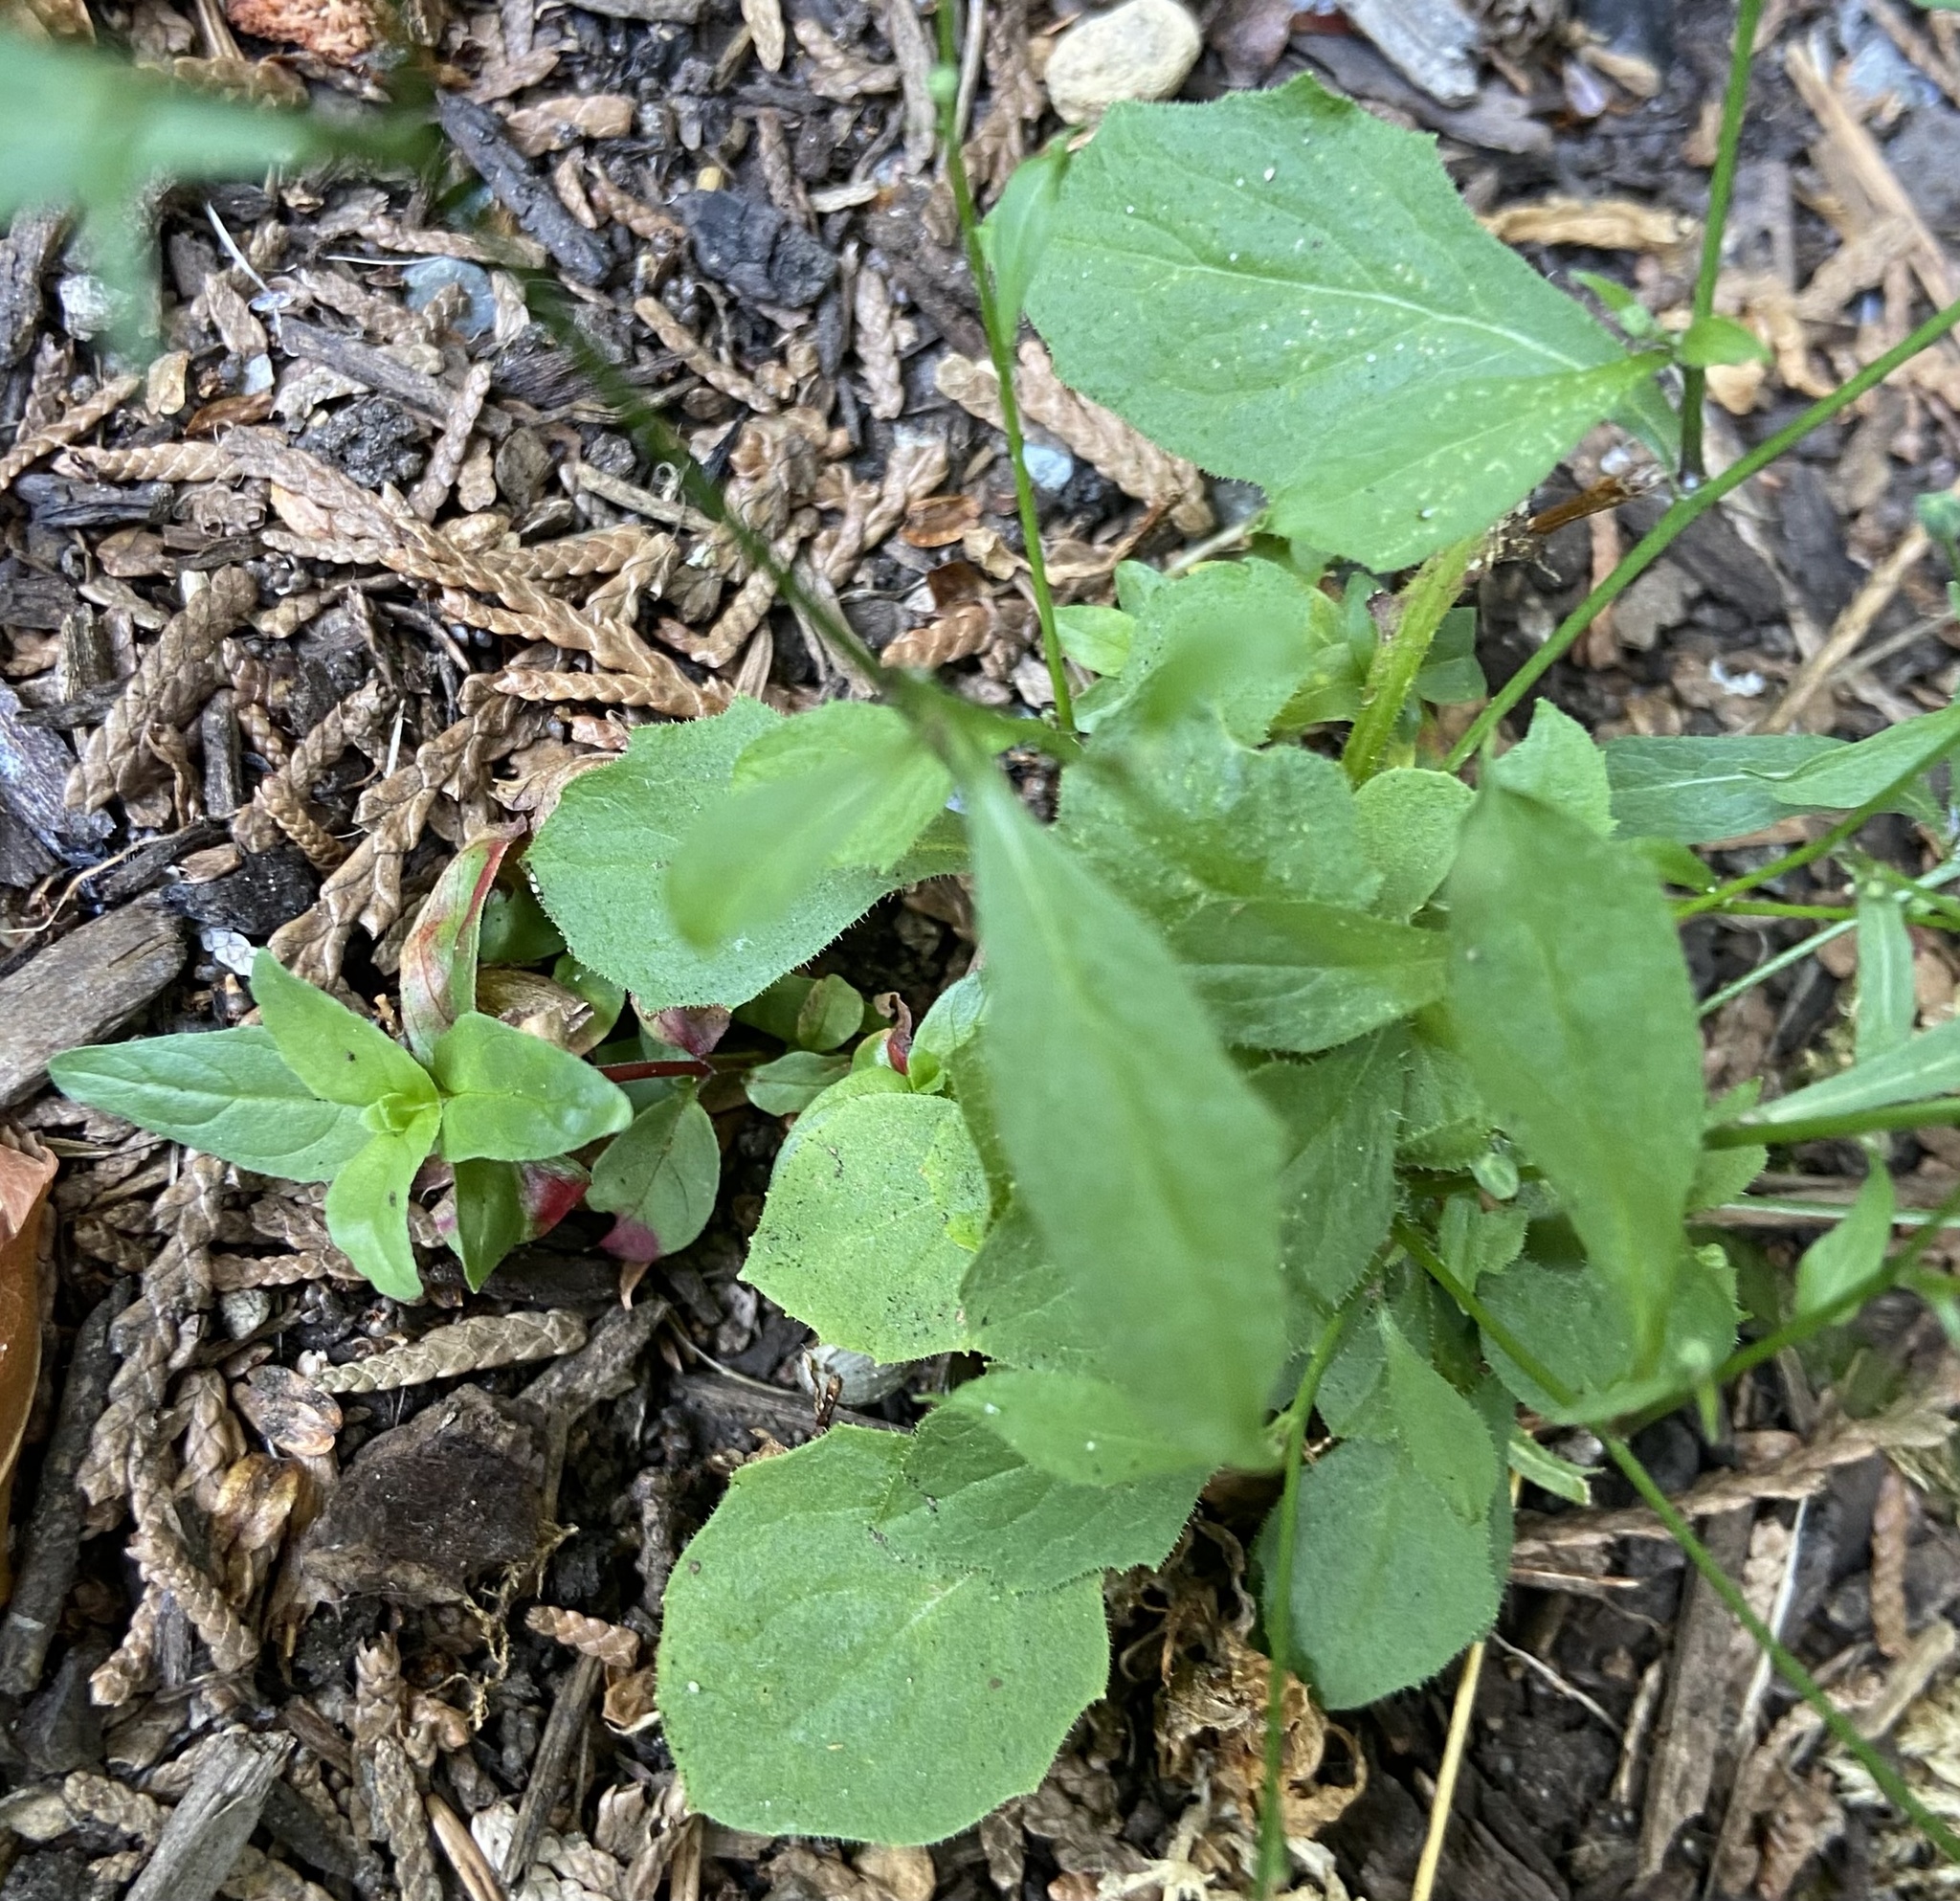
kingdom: Plantae
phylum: Tracheophyta
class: Magnoliopsida
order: Asterales
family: Asteraceae
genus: Lapsana
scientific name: Lapsana communis
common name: Nipplewort
